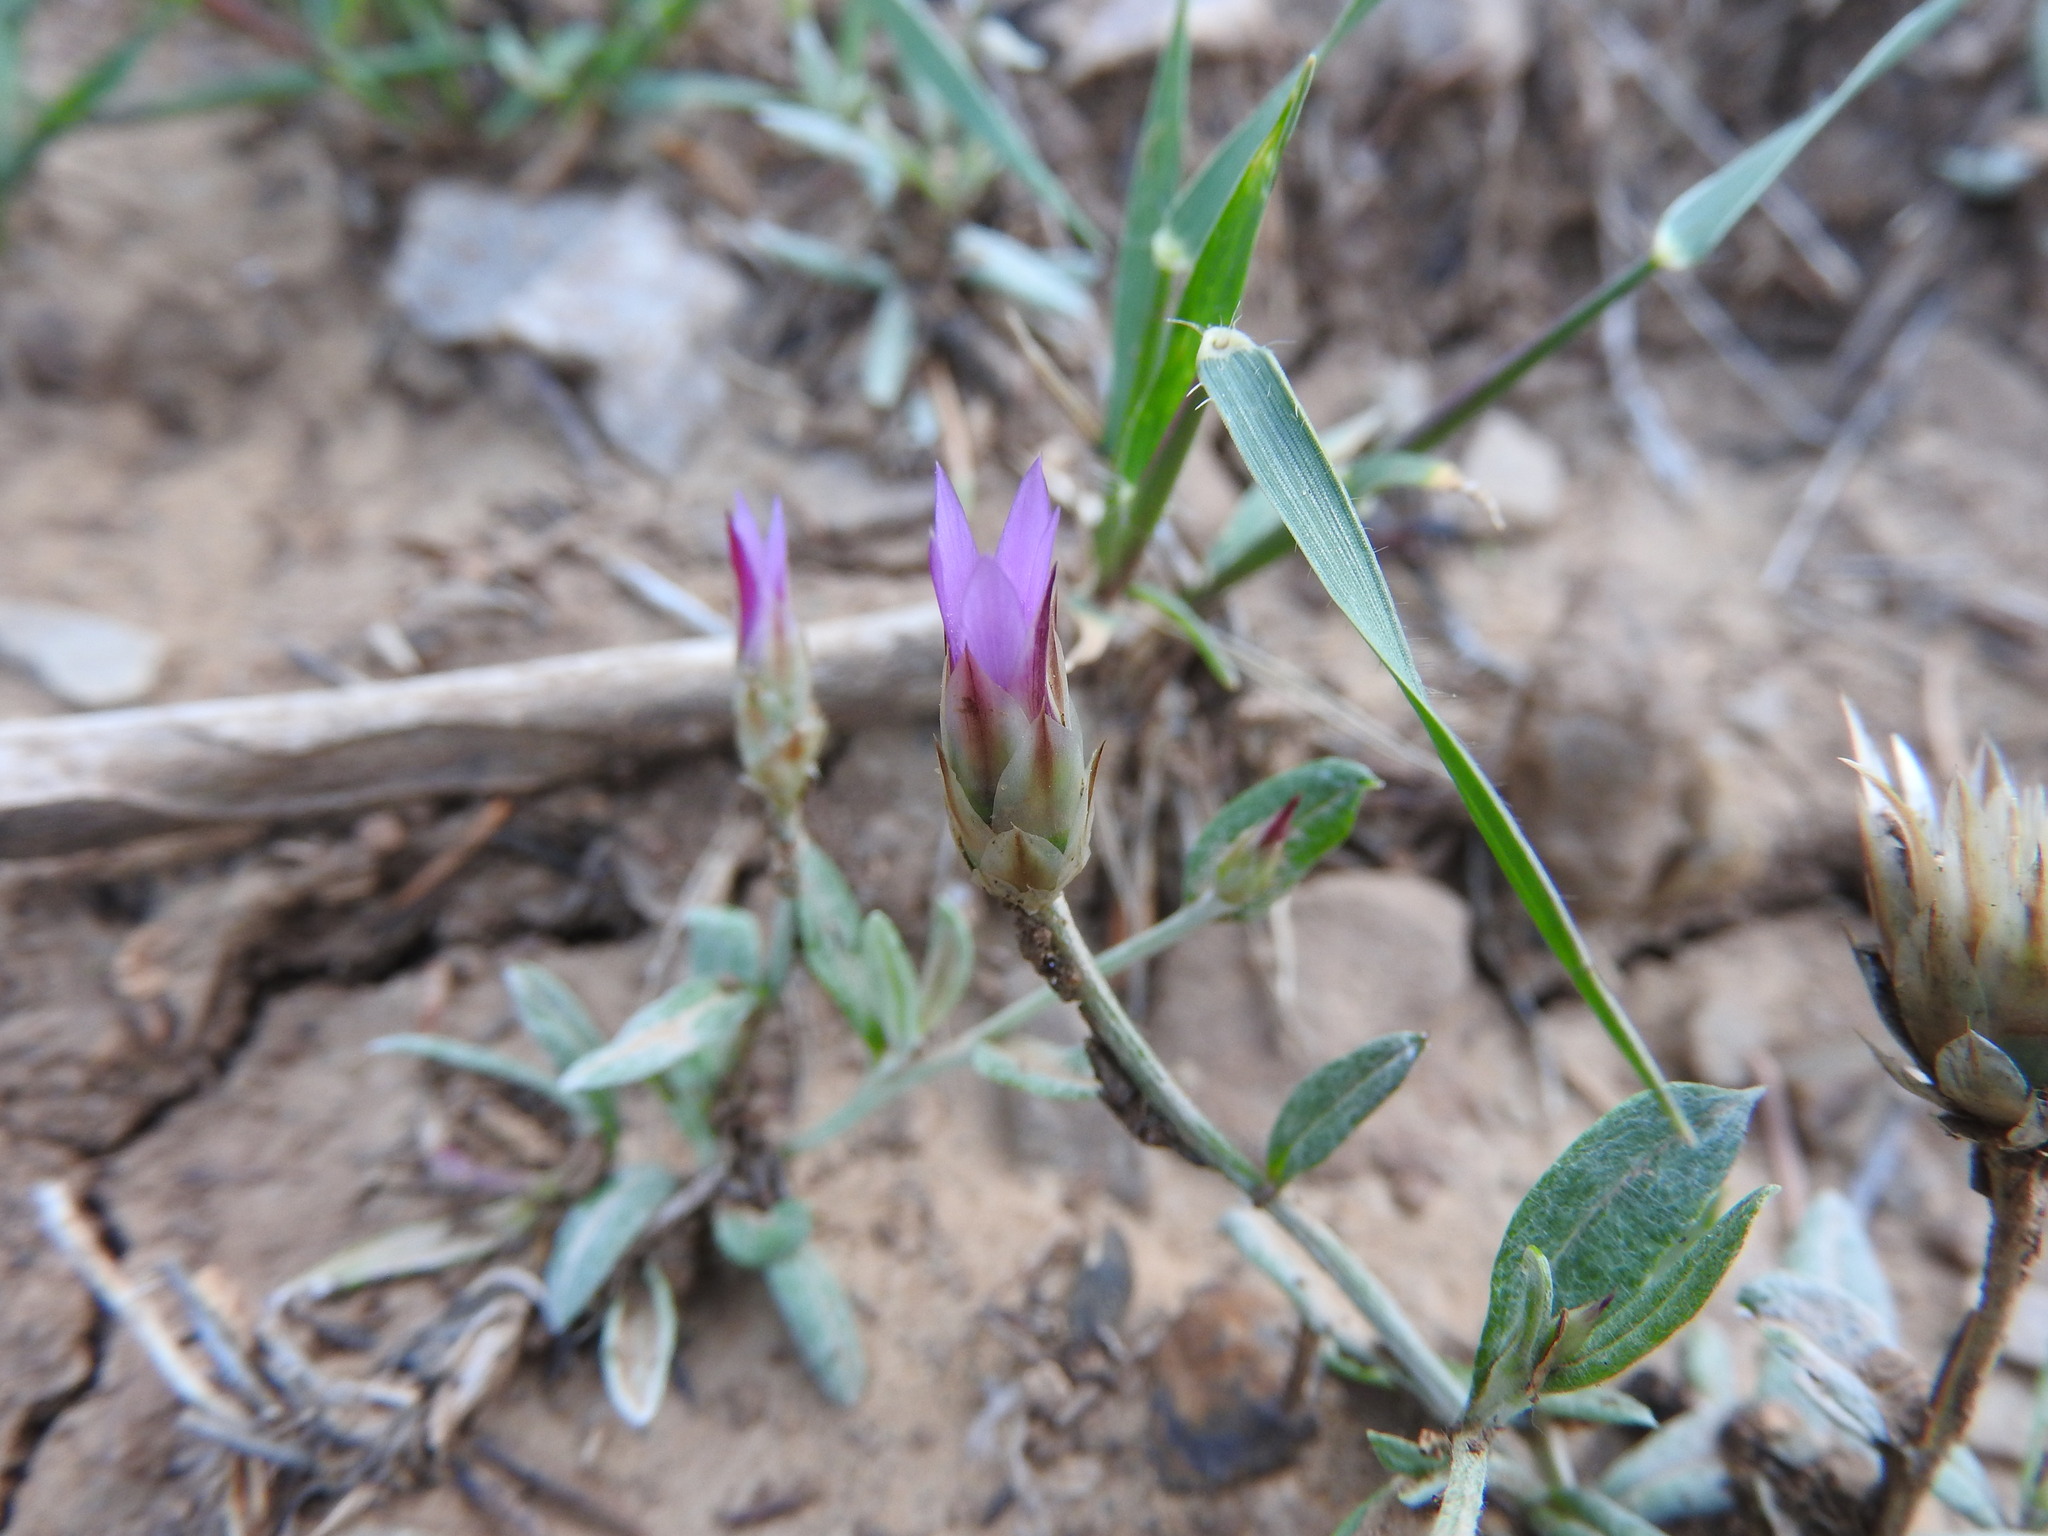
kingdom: Plantae
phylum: Tracheophyta
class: Magnoliopsida
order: Asterales
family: Asteraceae
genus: Xeranthemum
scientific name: Xeranthemum inapertum
